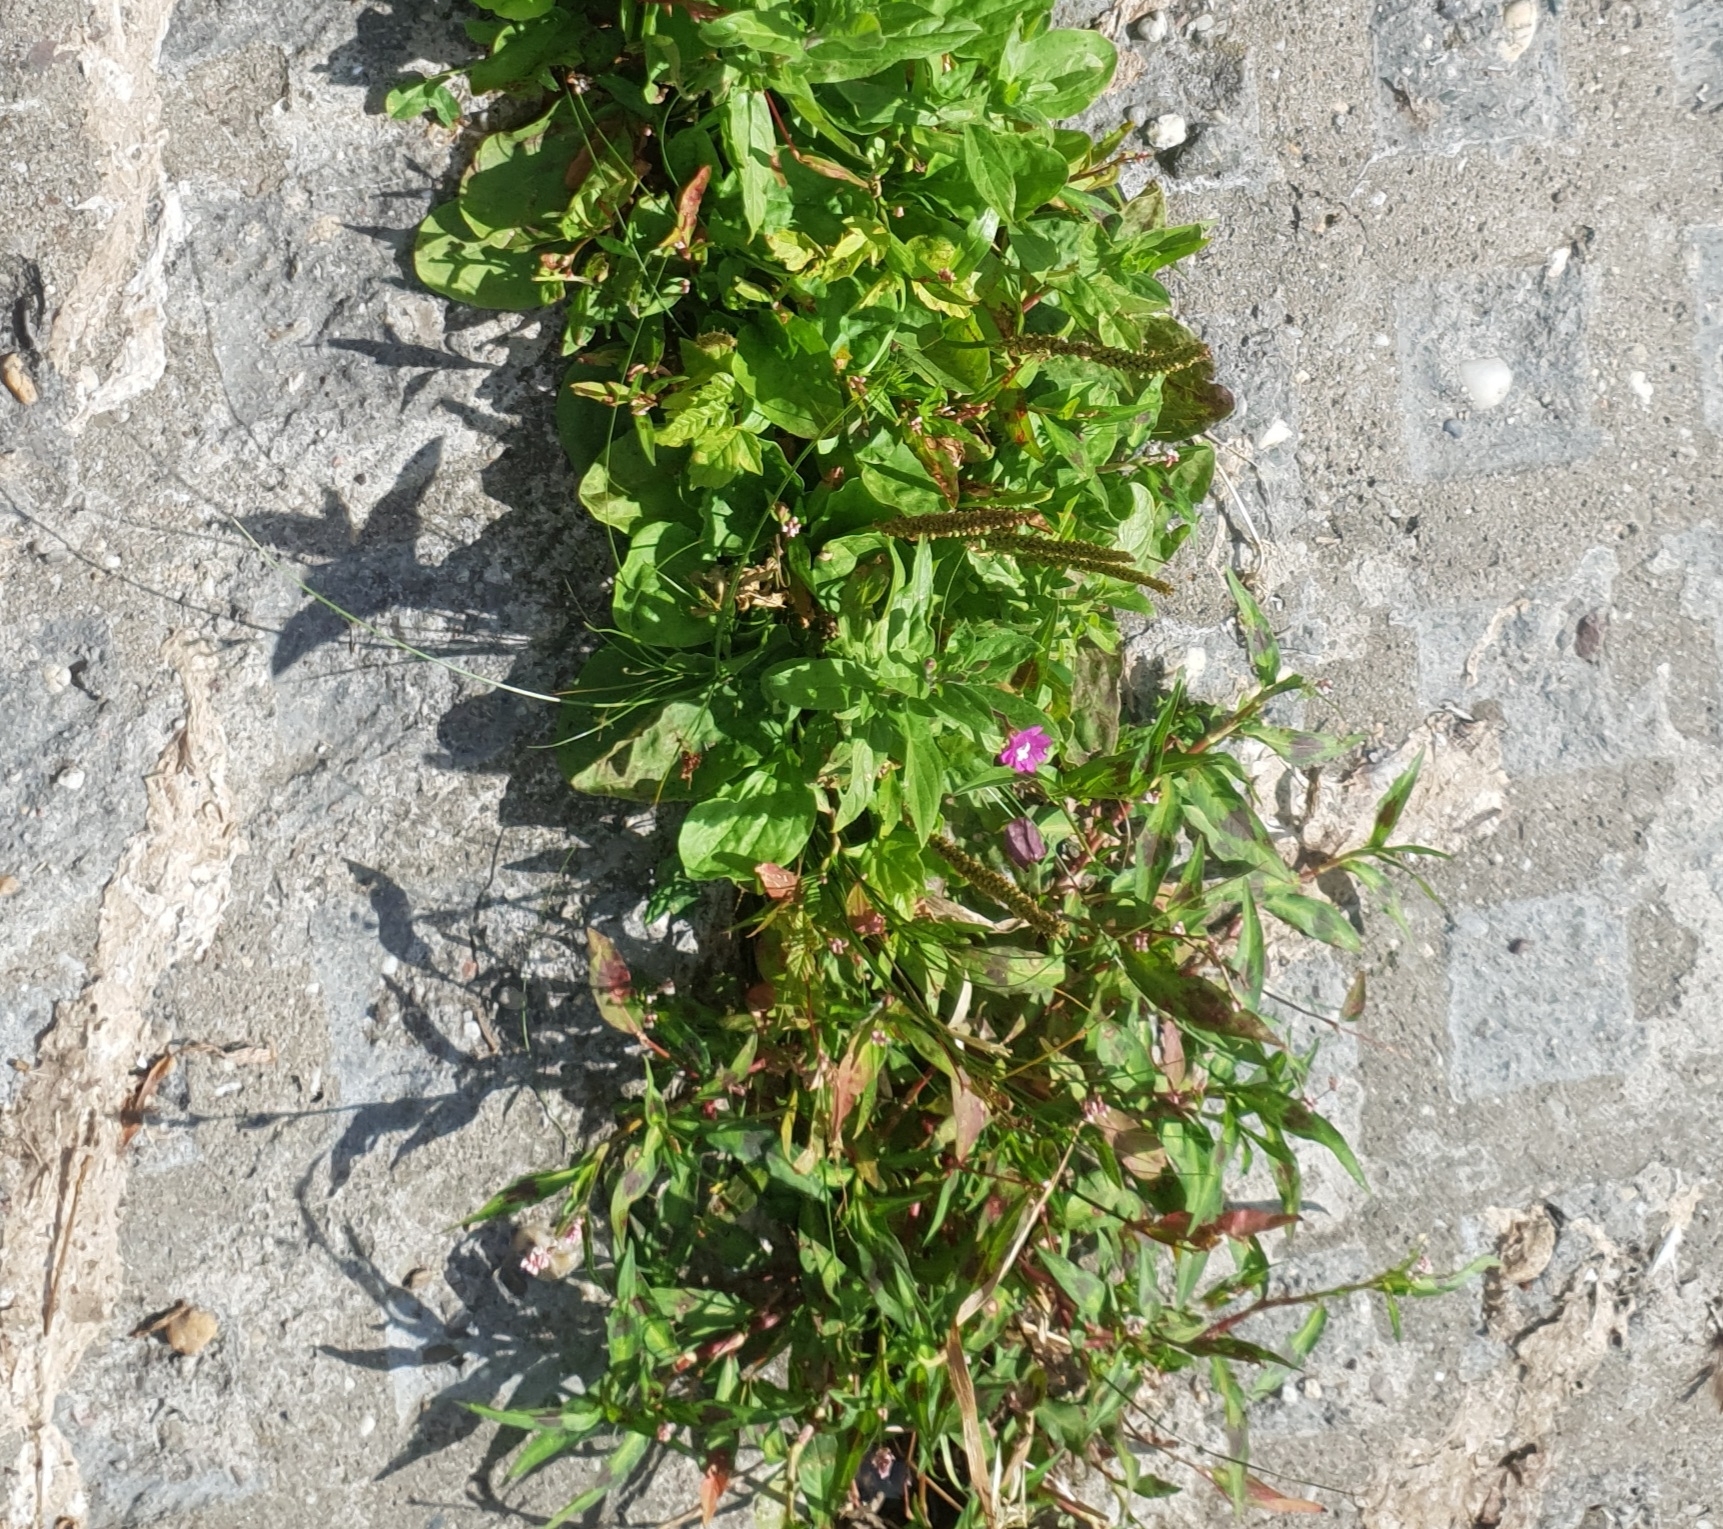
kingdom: Plantae
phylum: Tracheophyta
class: Magnoliopsida
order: Myrtales
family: Onagraceae
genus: Epilobium
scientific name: Epilobium hirsutum
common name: Great willowherb
